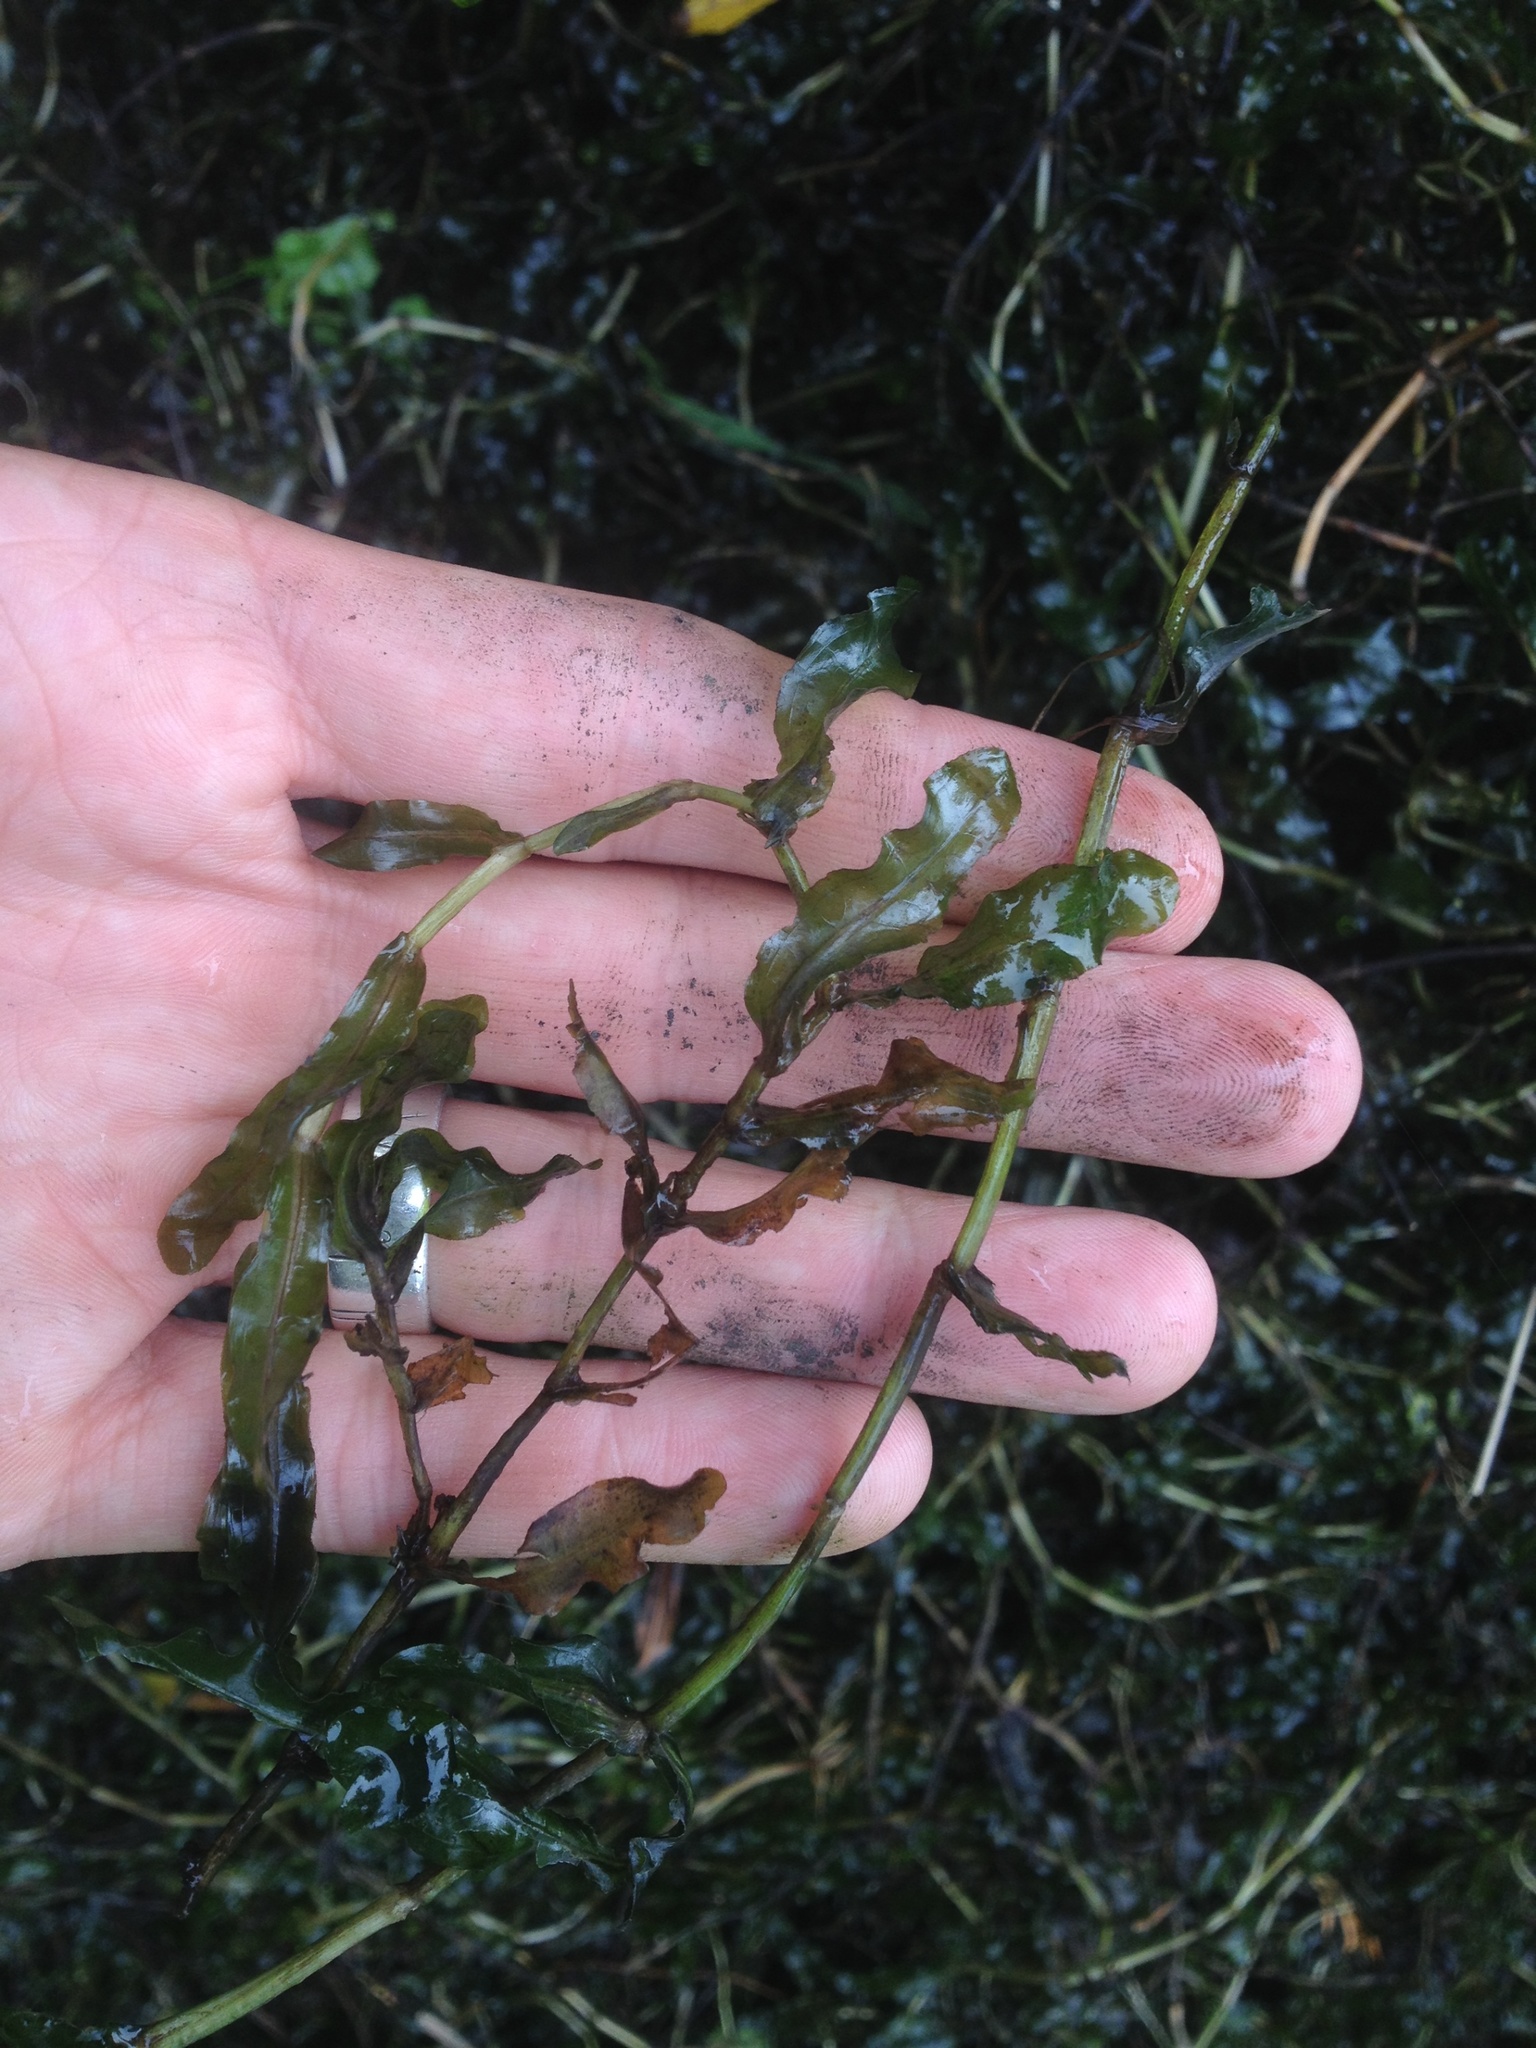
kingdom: Plantae
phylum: Tracheophyta
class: Liliopsida
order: Alismatales
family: Potamogetonaceae
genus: Potamogeton
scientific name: Potamogeton crispus
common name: Curled pondweed
